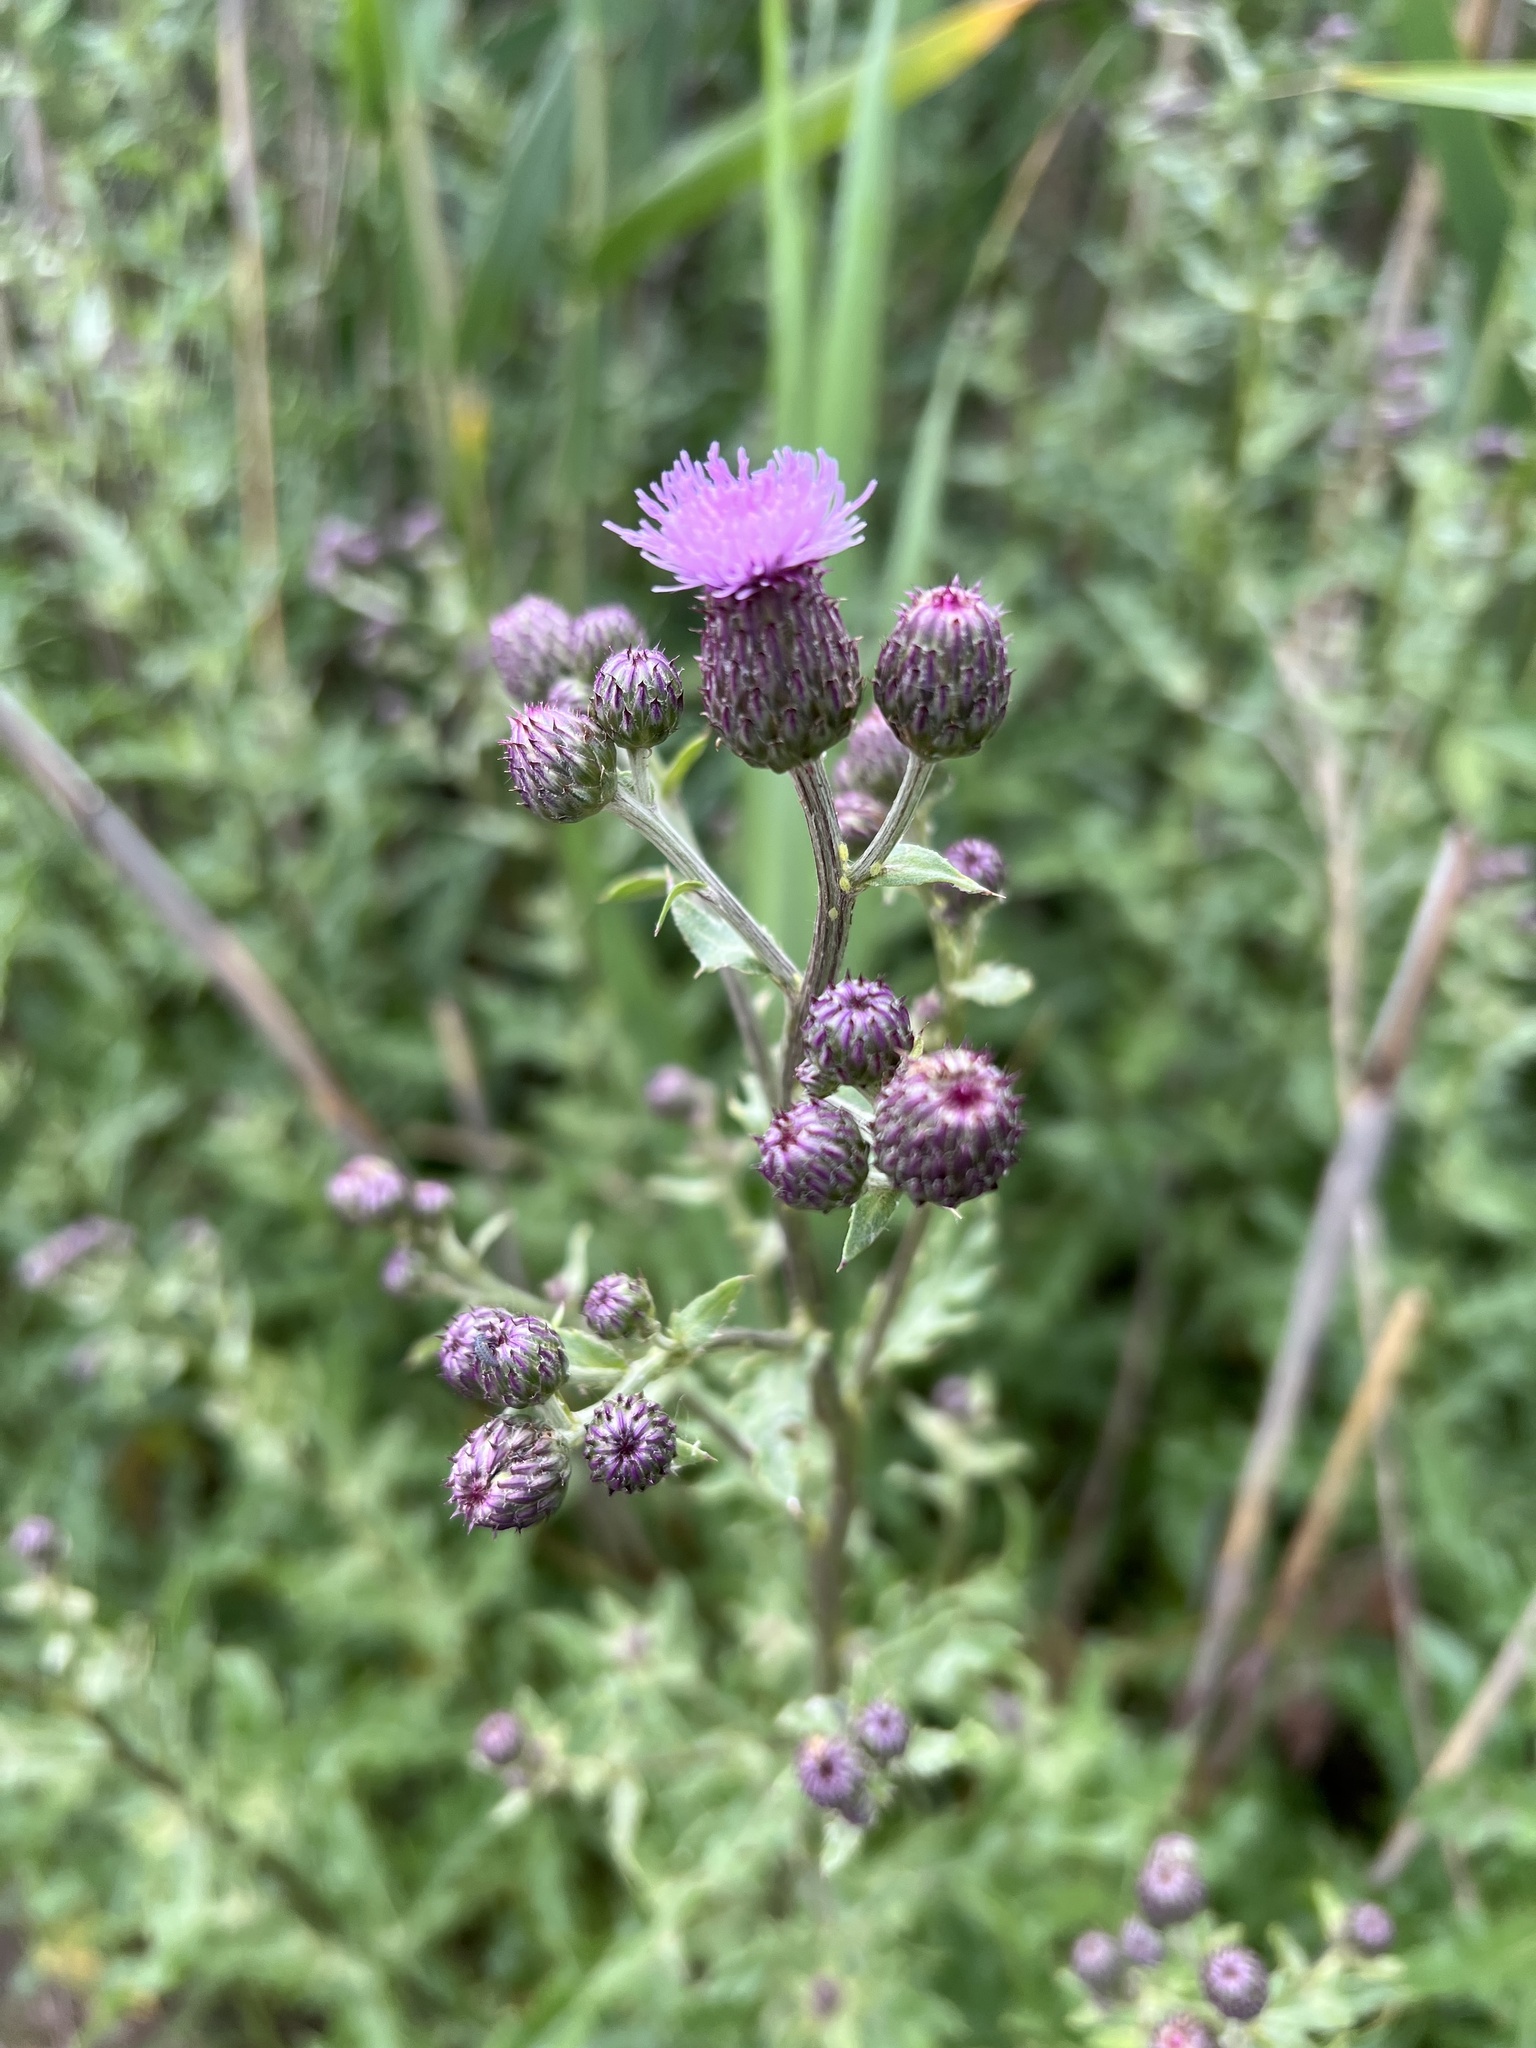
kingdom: Plantae
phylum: Tracheophyta
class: Magnoliopsida
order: Asterales
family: Asteraceae
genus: Cirsium
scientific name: Cirsium arvense
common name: Creeping thistle
